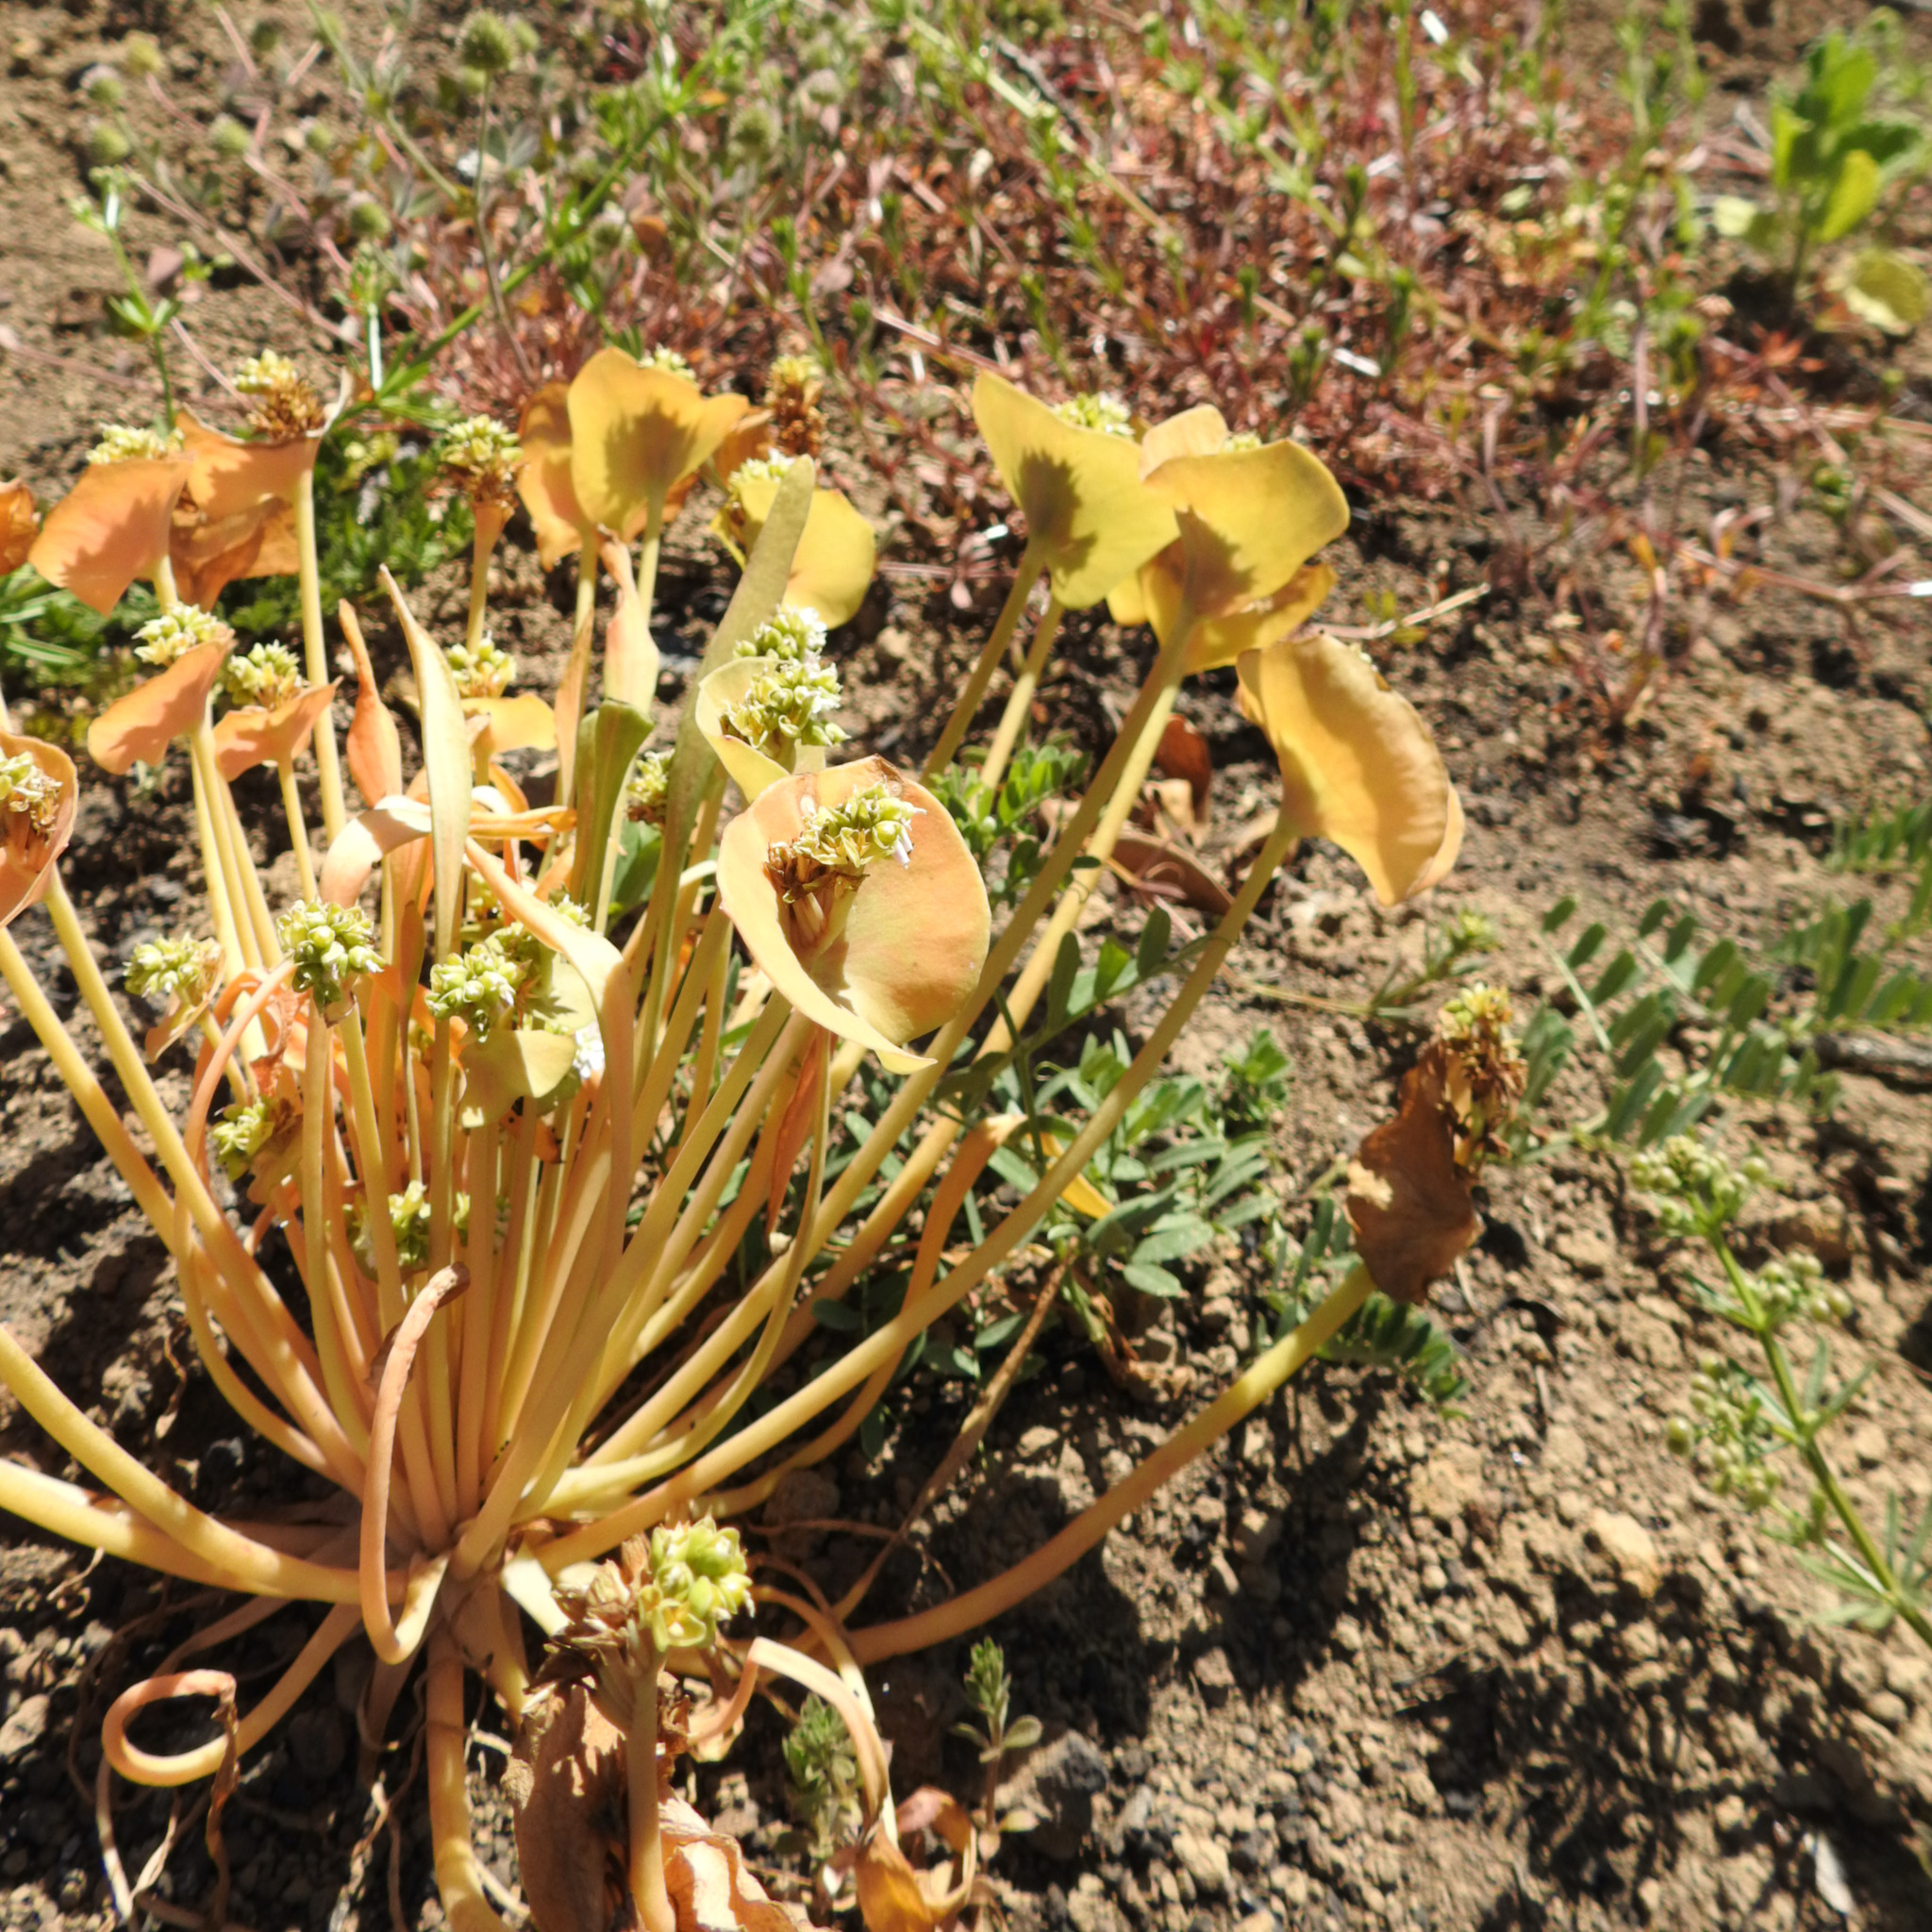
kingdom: Plantae
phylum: Tracheophyta
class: Magnoliopsida
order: Caryophyllales
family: Montiaceae
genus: Claytonia
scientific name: Claytonia perfoliata
